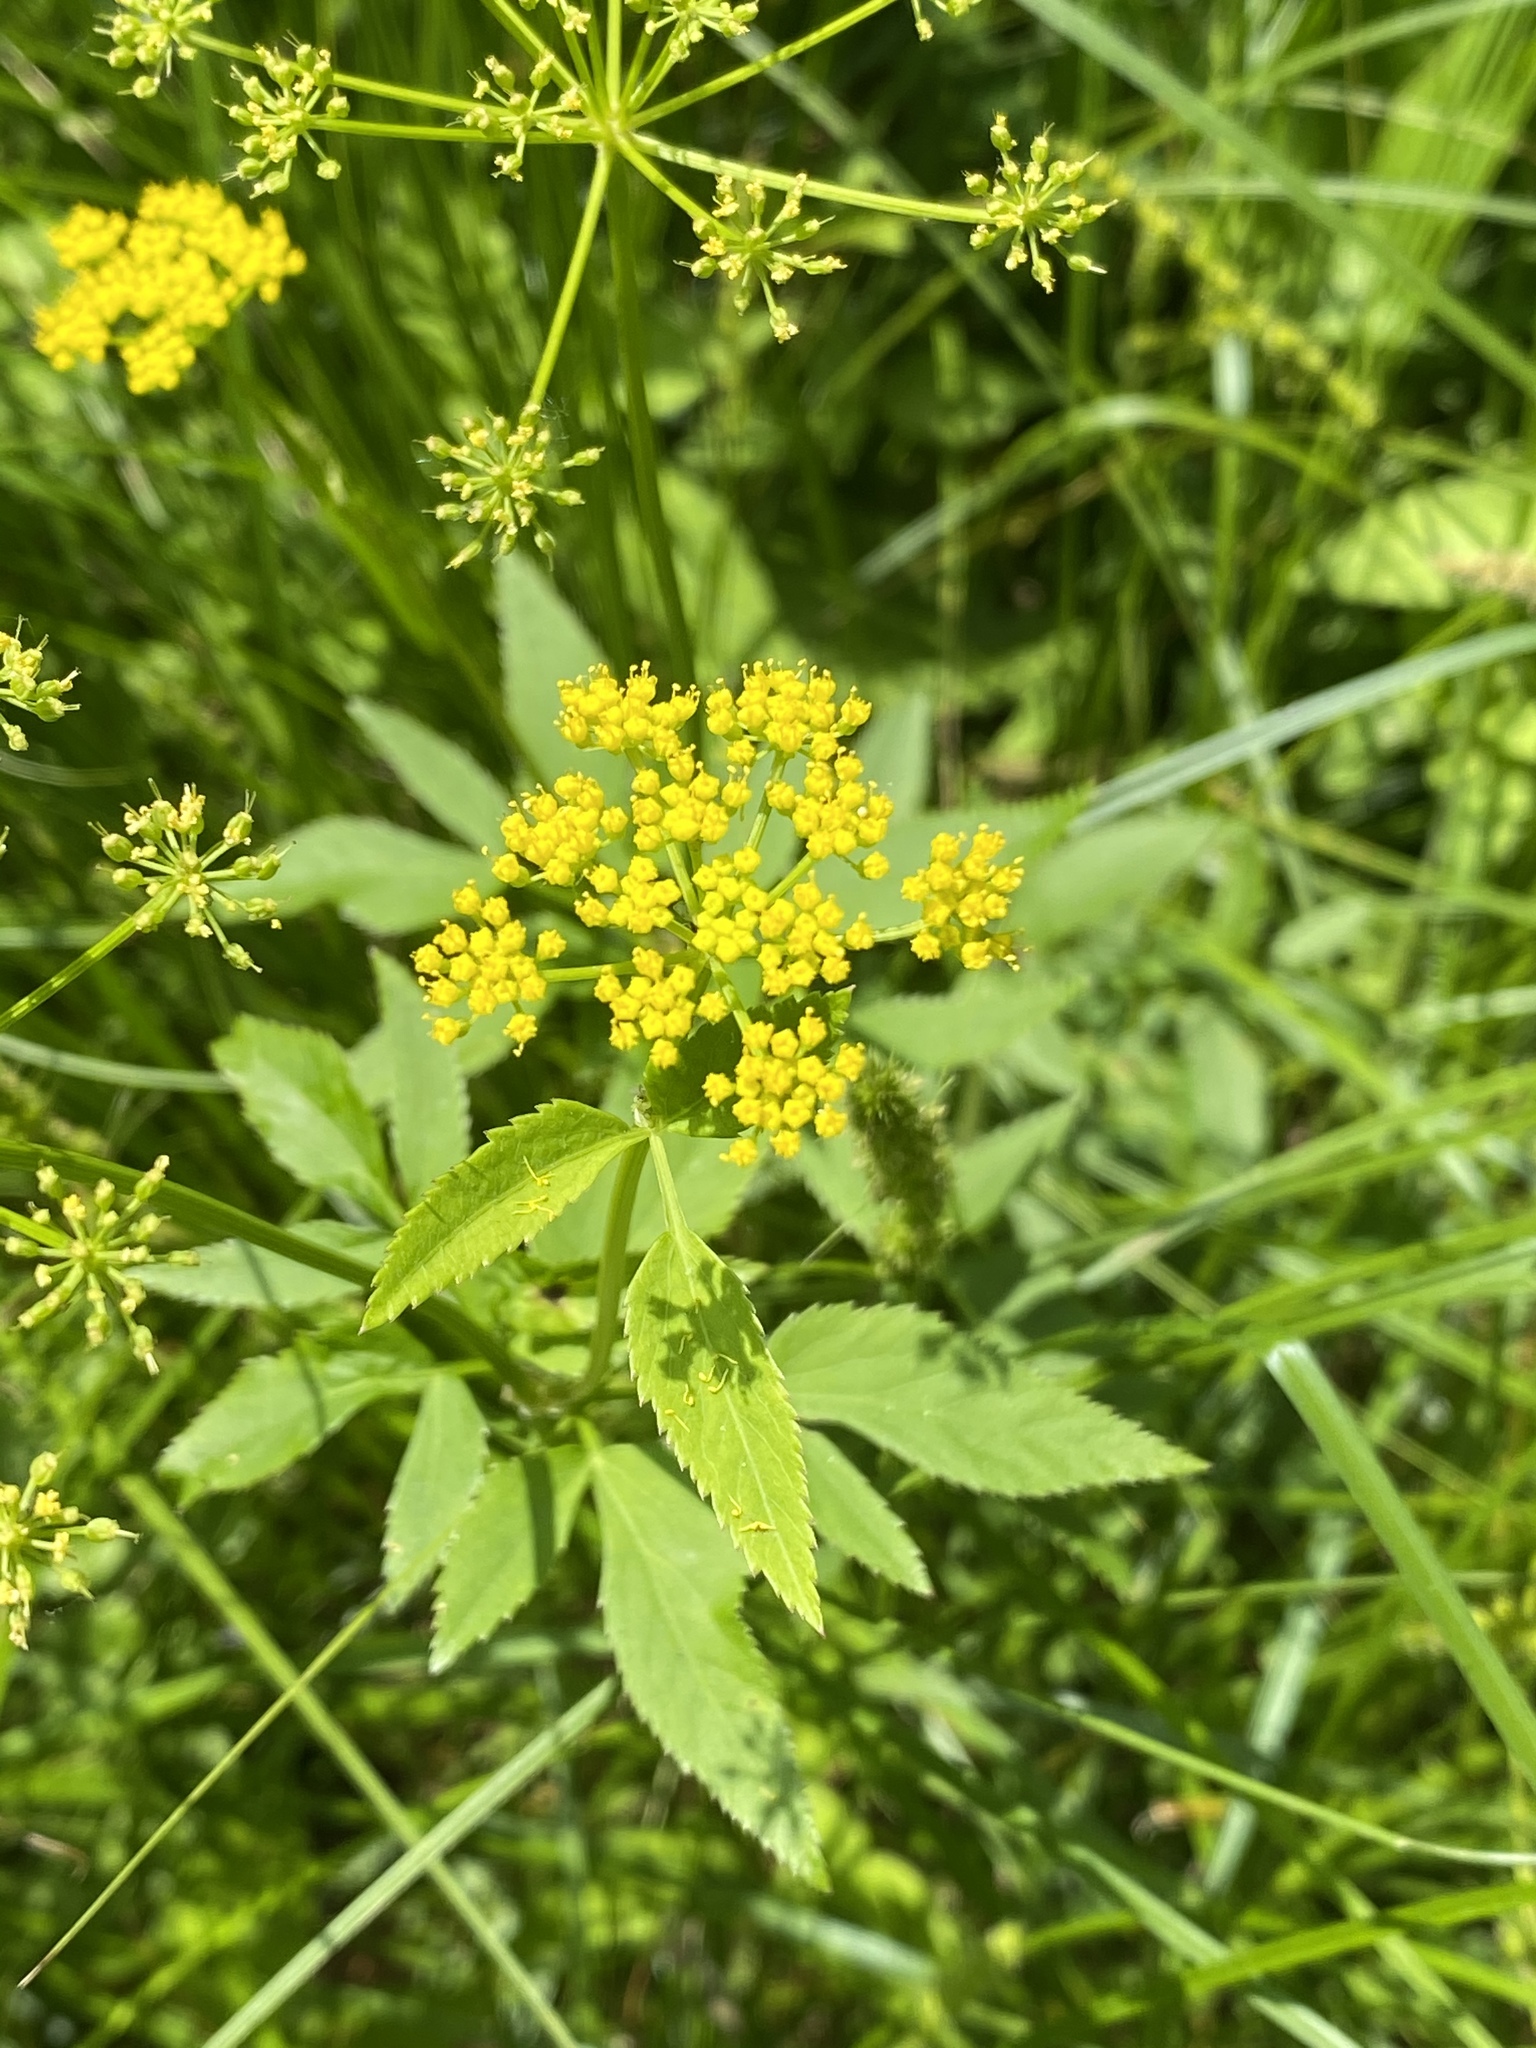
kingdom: Plantae
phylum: Tracheophyta
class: Magnoliopsida
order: Apiales
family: Apiaceae
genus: Zizia
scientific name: Zizia aurea
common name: Golden alexanders
